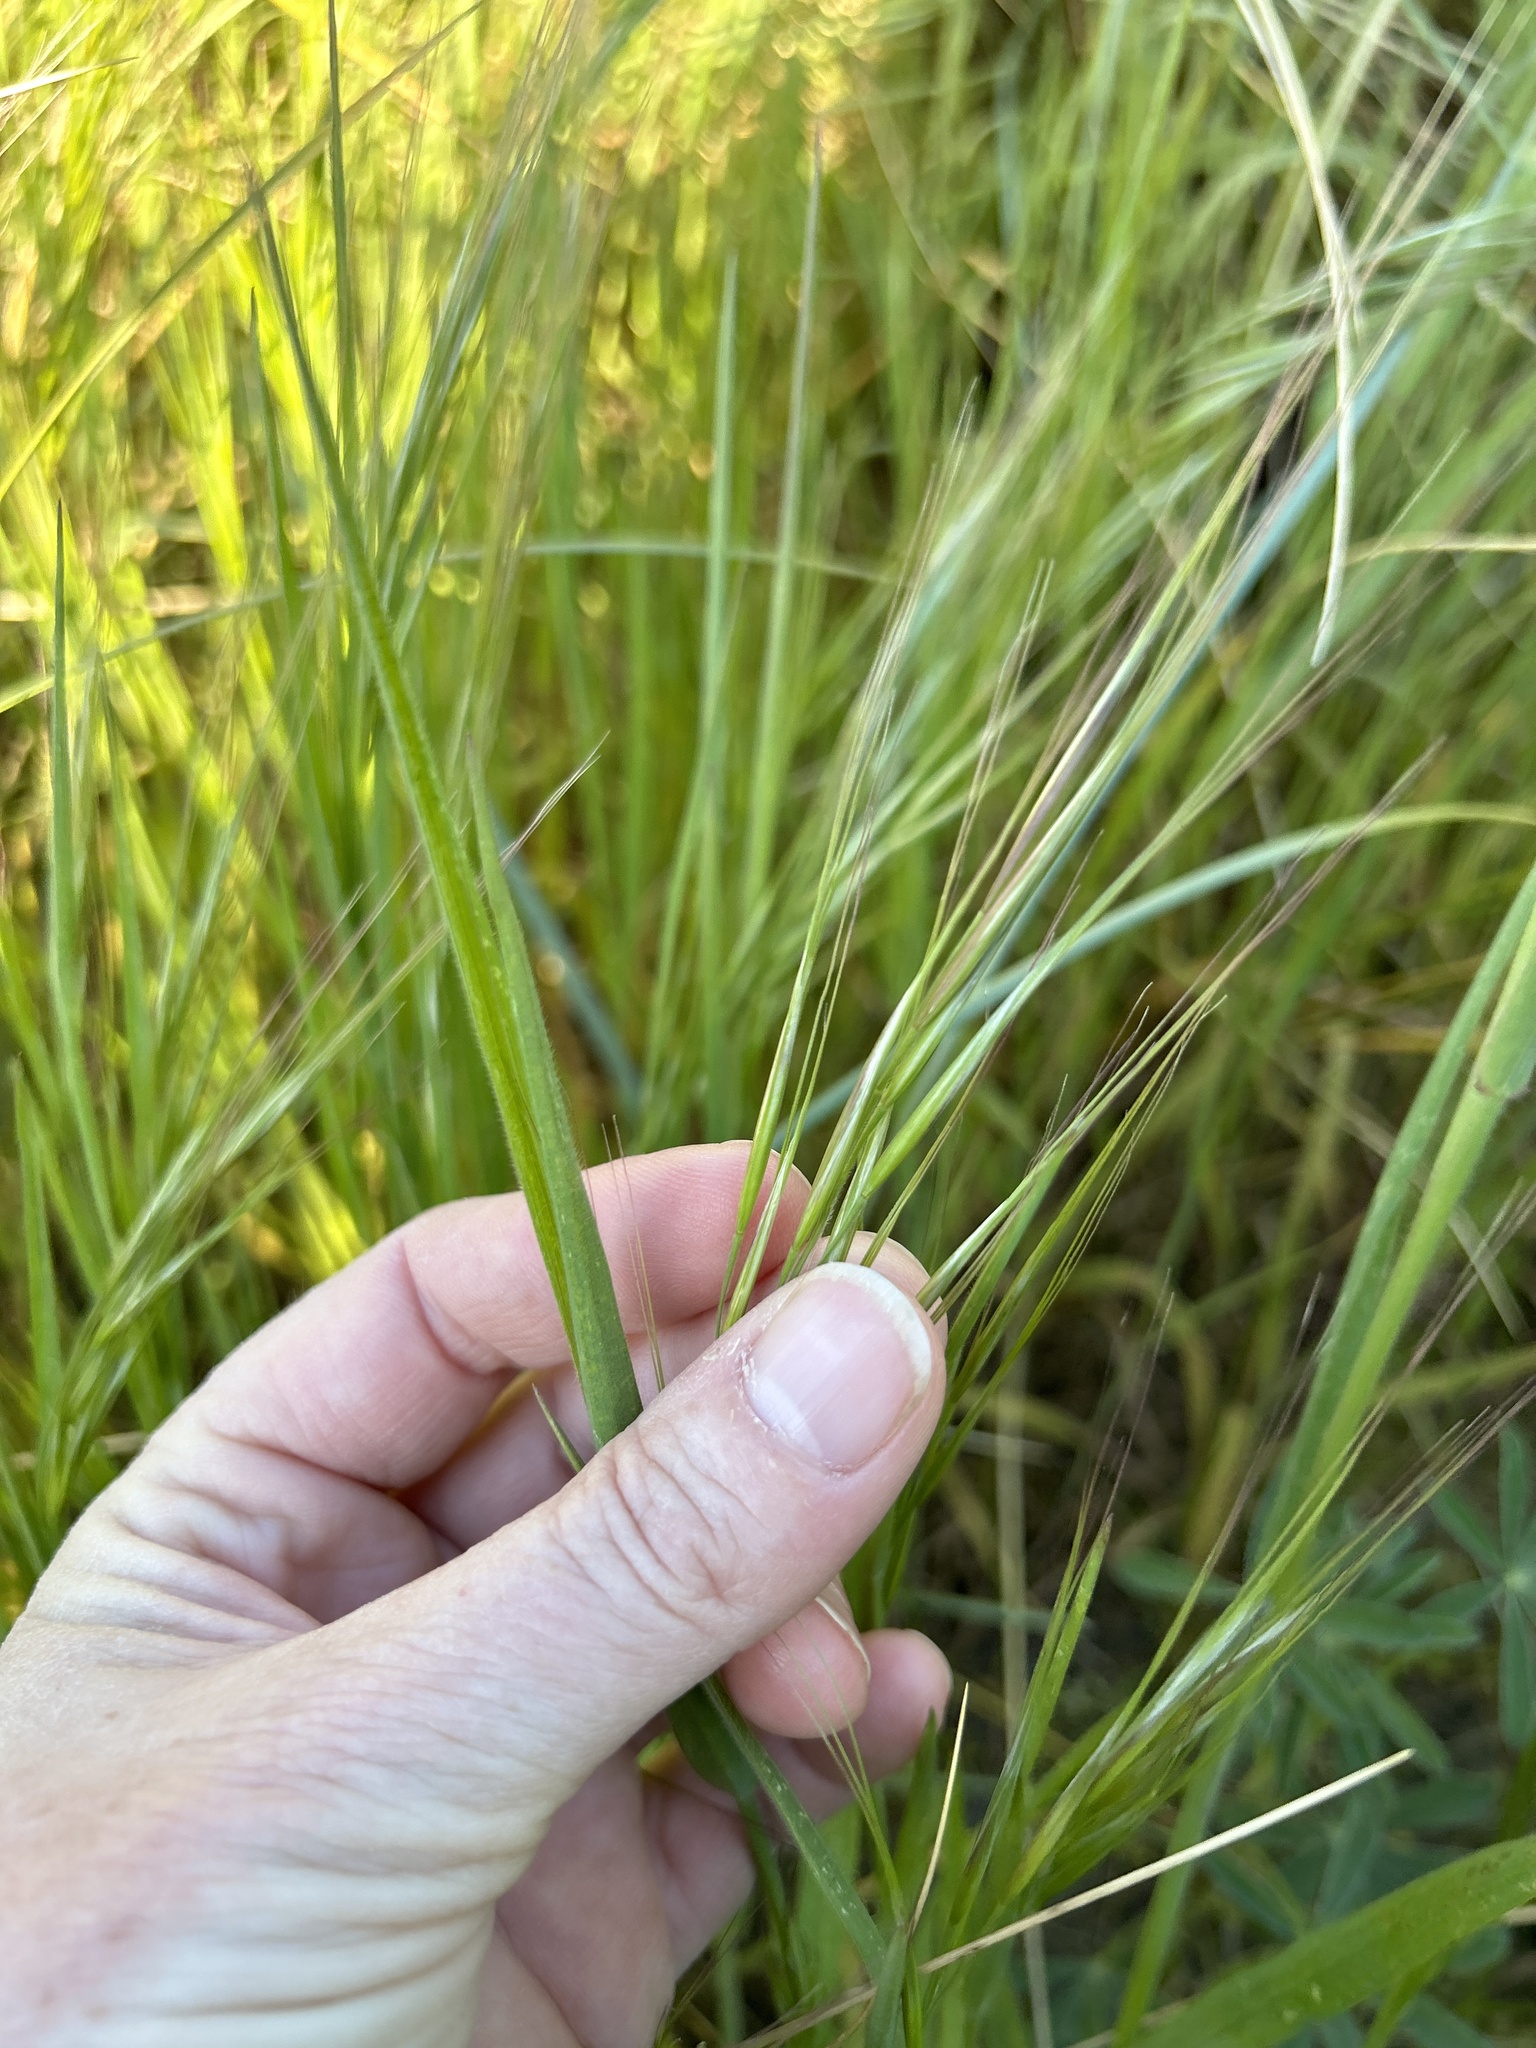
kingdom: Plantae
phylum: Tracheophyta
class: Liliopsida
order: Poales
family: Poaceae
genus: Bromus
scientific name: Bromus diandrus
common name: Ripgut brome
